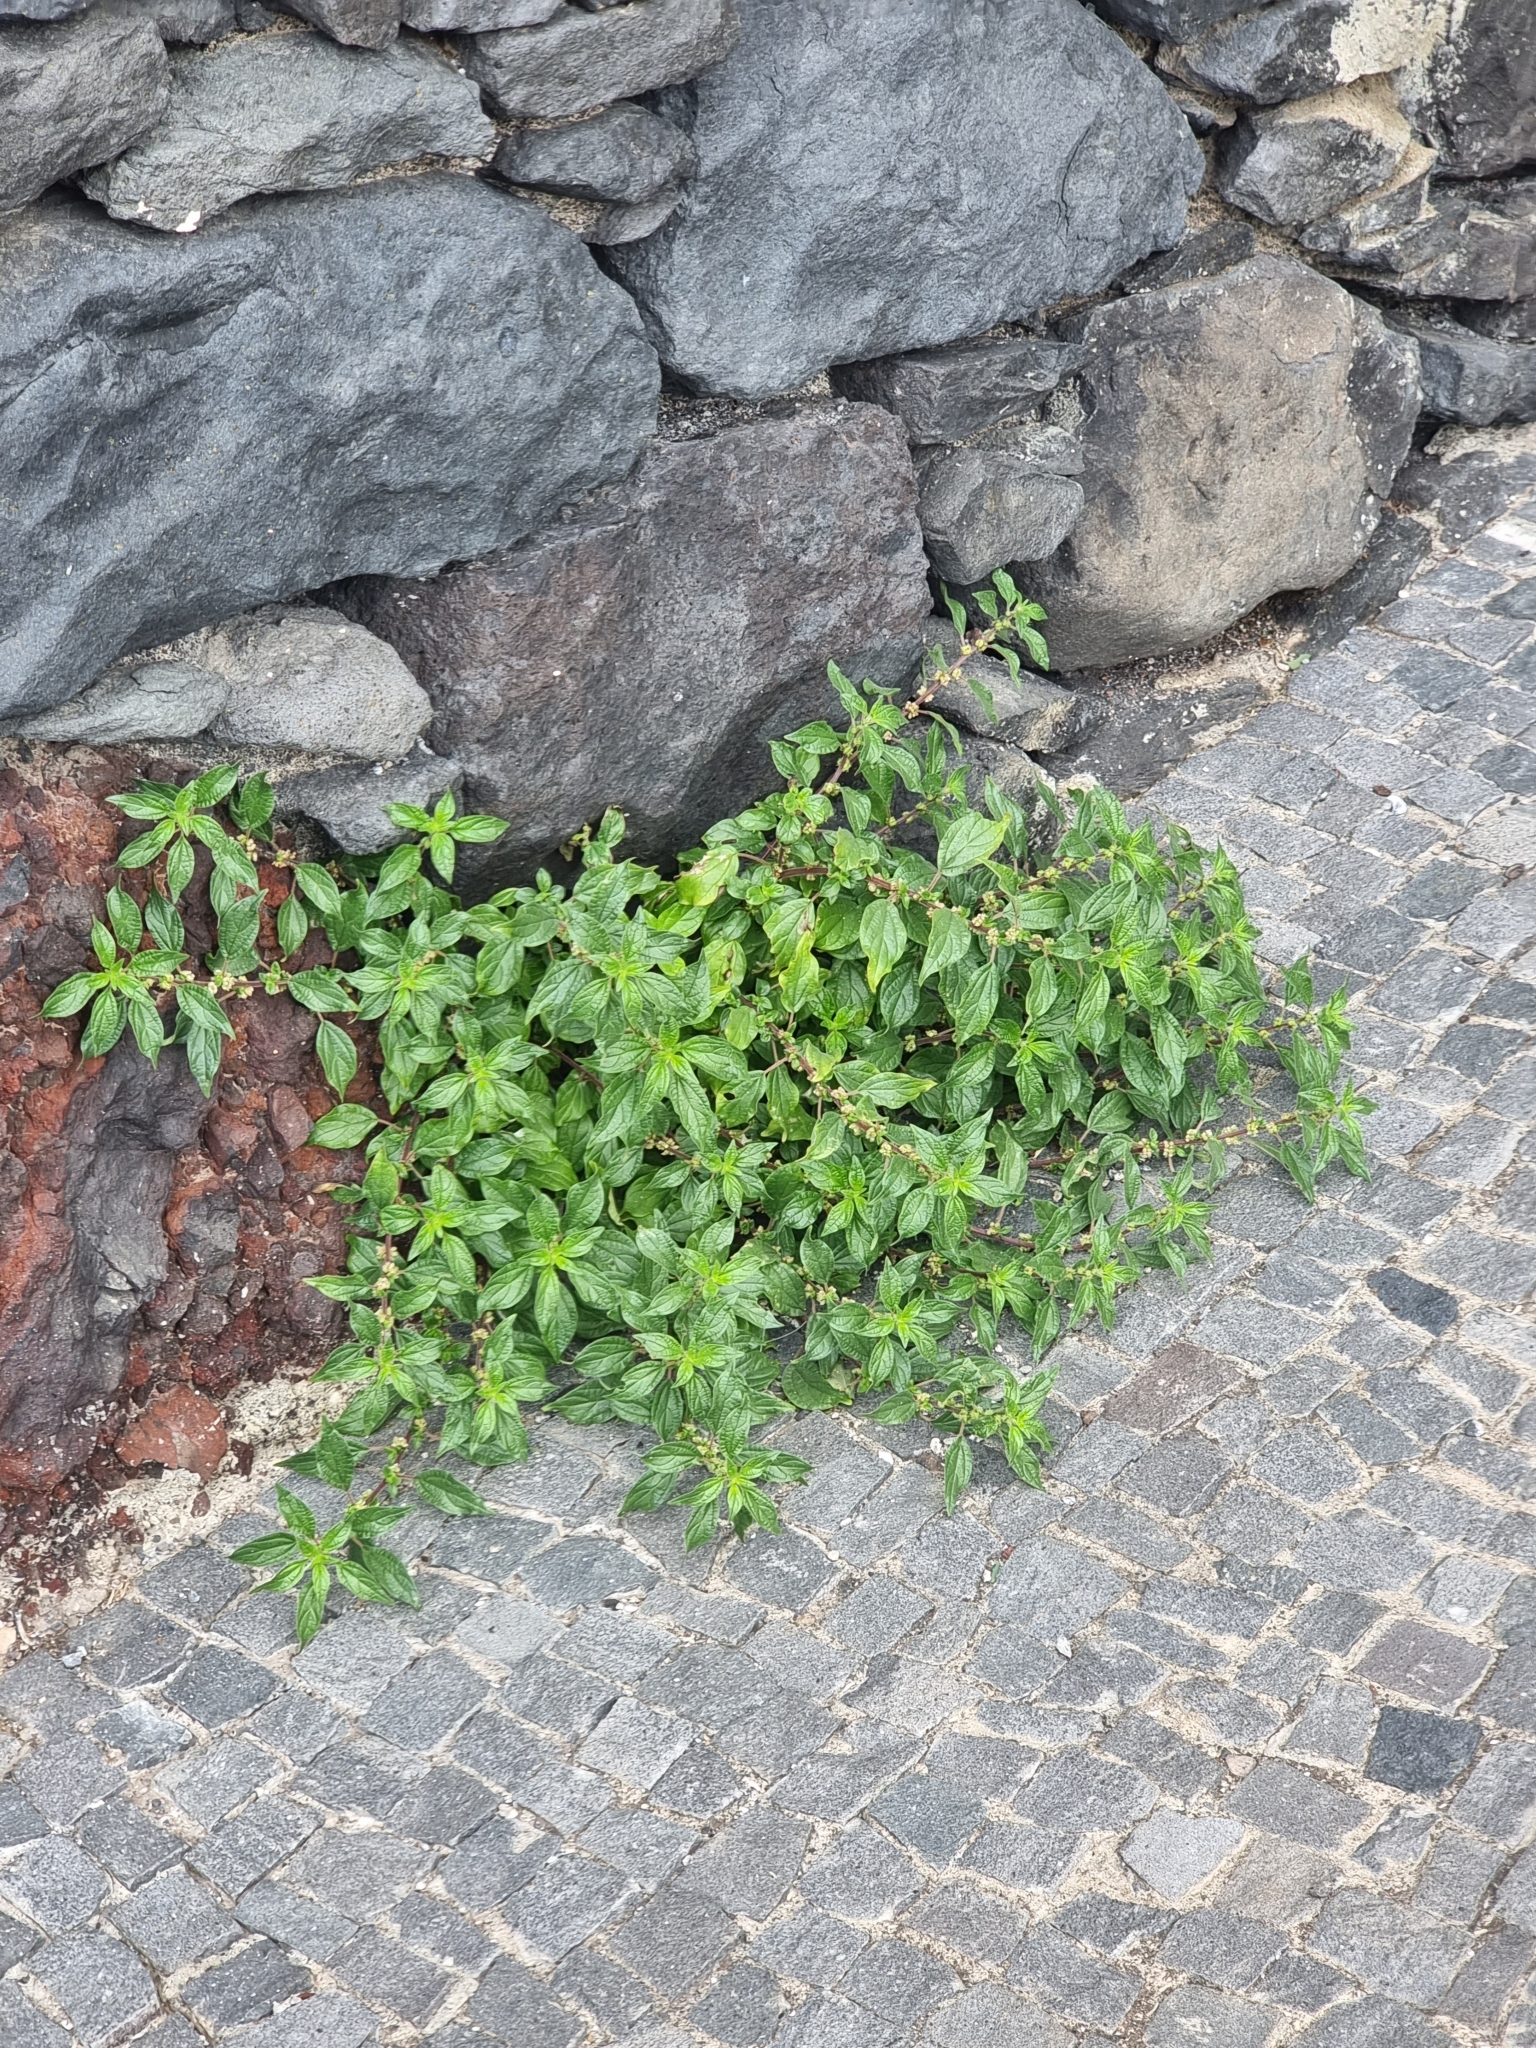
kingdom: Plantae
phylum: Tracheophyta
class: Magnoliopsida
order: Rosales
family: Urticaceae
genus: Parietaria
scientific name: Parietaria judaica
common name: Pellitory-of-the-wall
